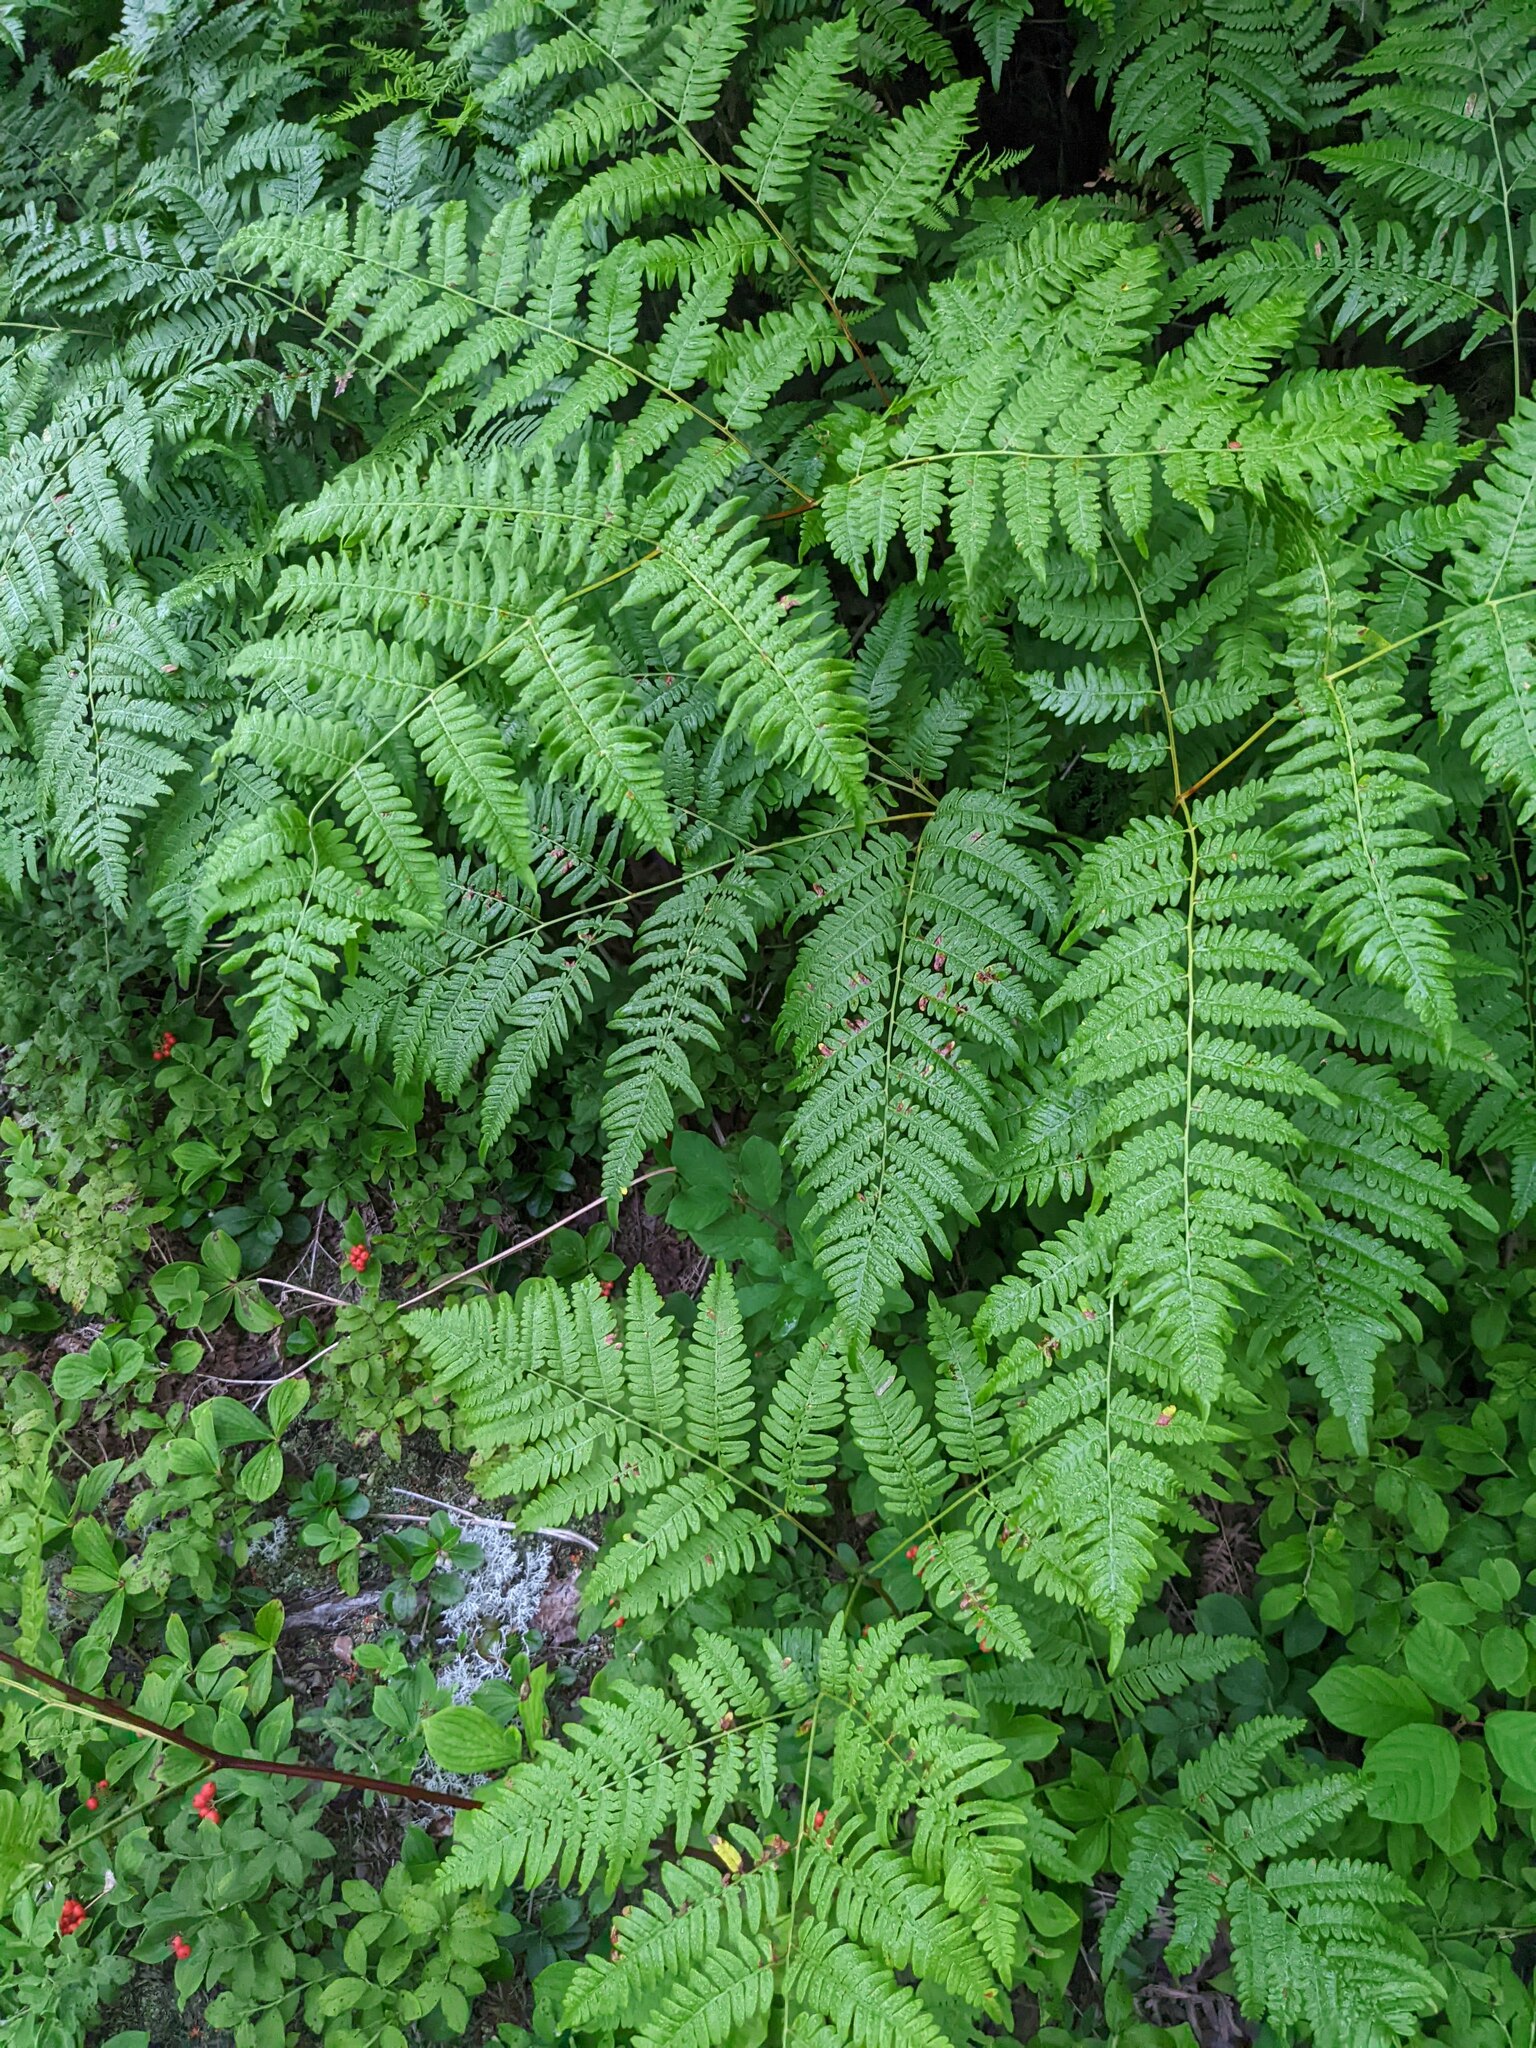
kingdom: Plantae
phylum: Tracheophyta
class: Polypodiopsida
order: Polypodiales
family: Dennstaedtiaceae
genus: Pteridium
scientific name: Pteridium aquilinum
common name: Bracken
